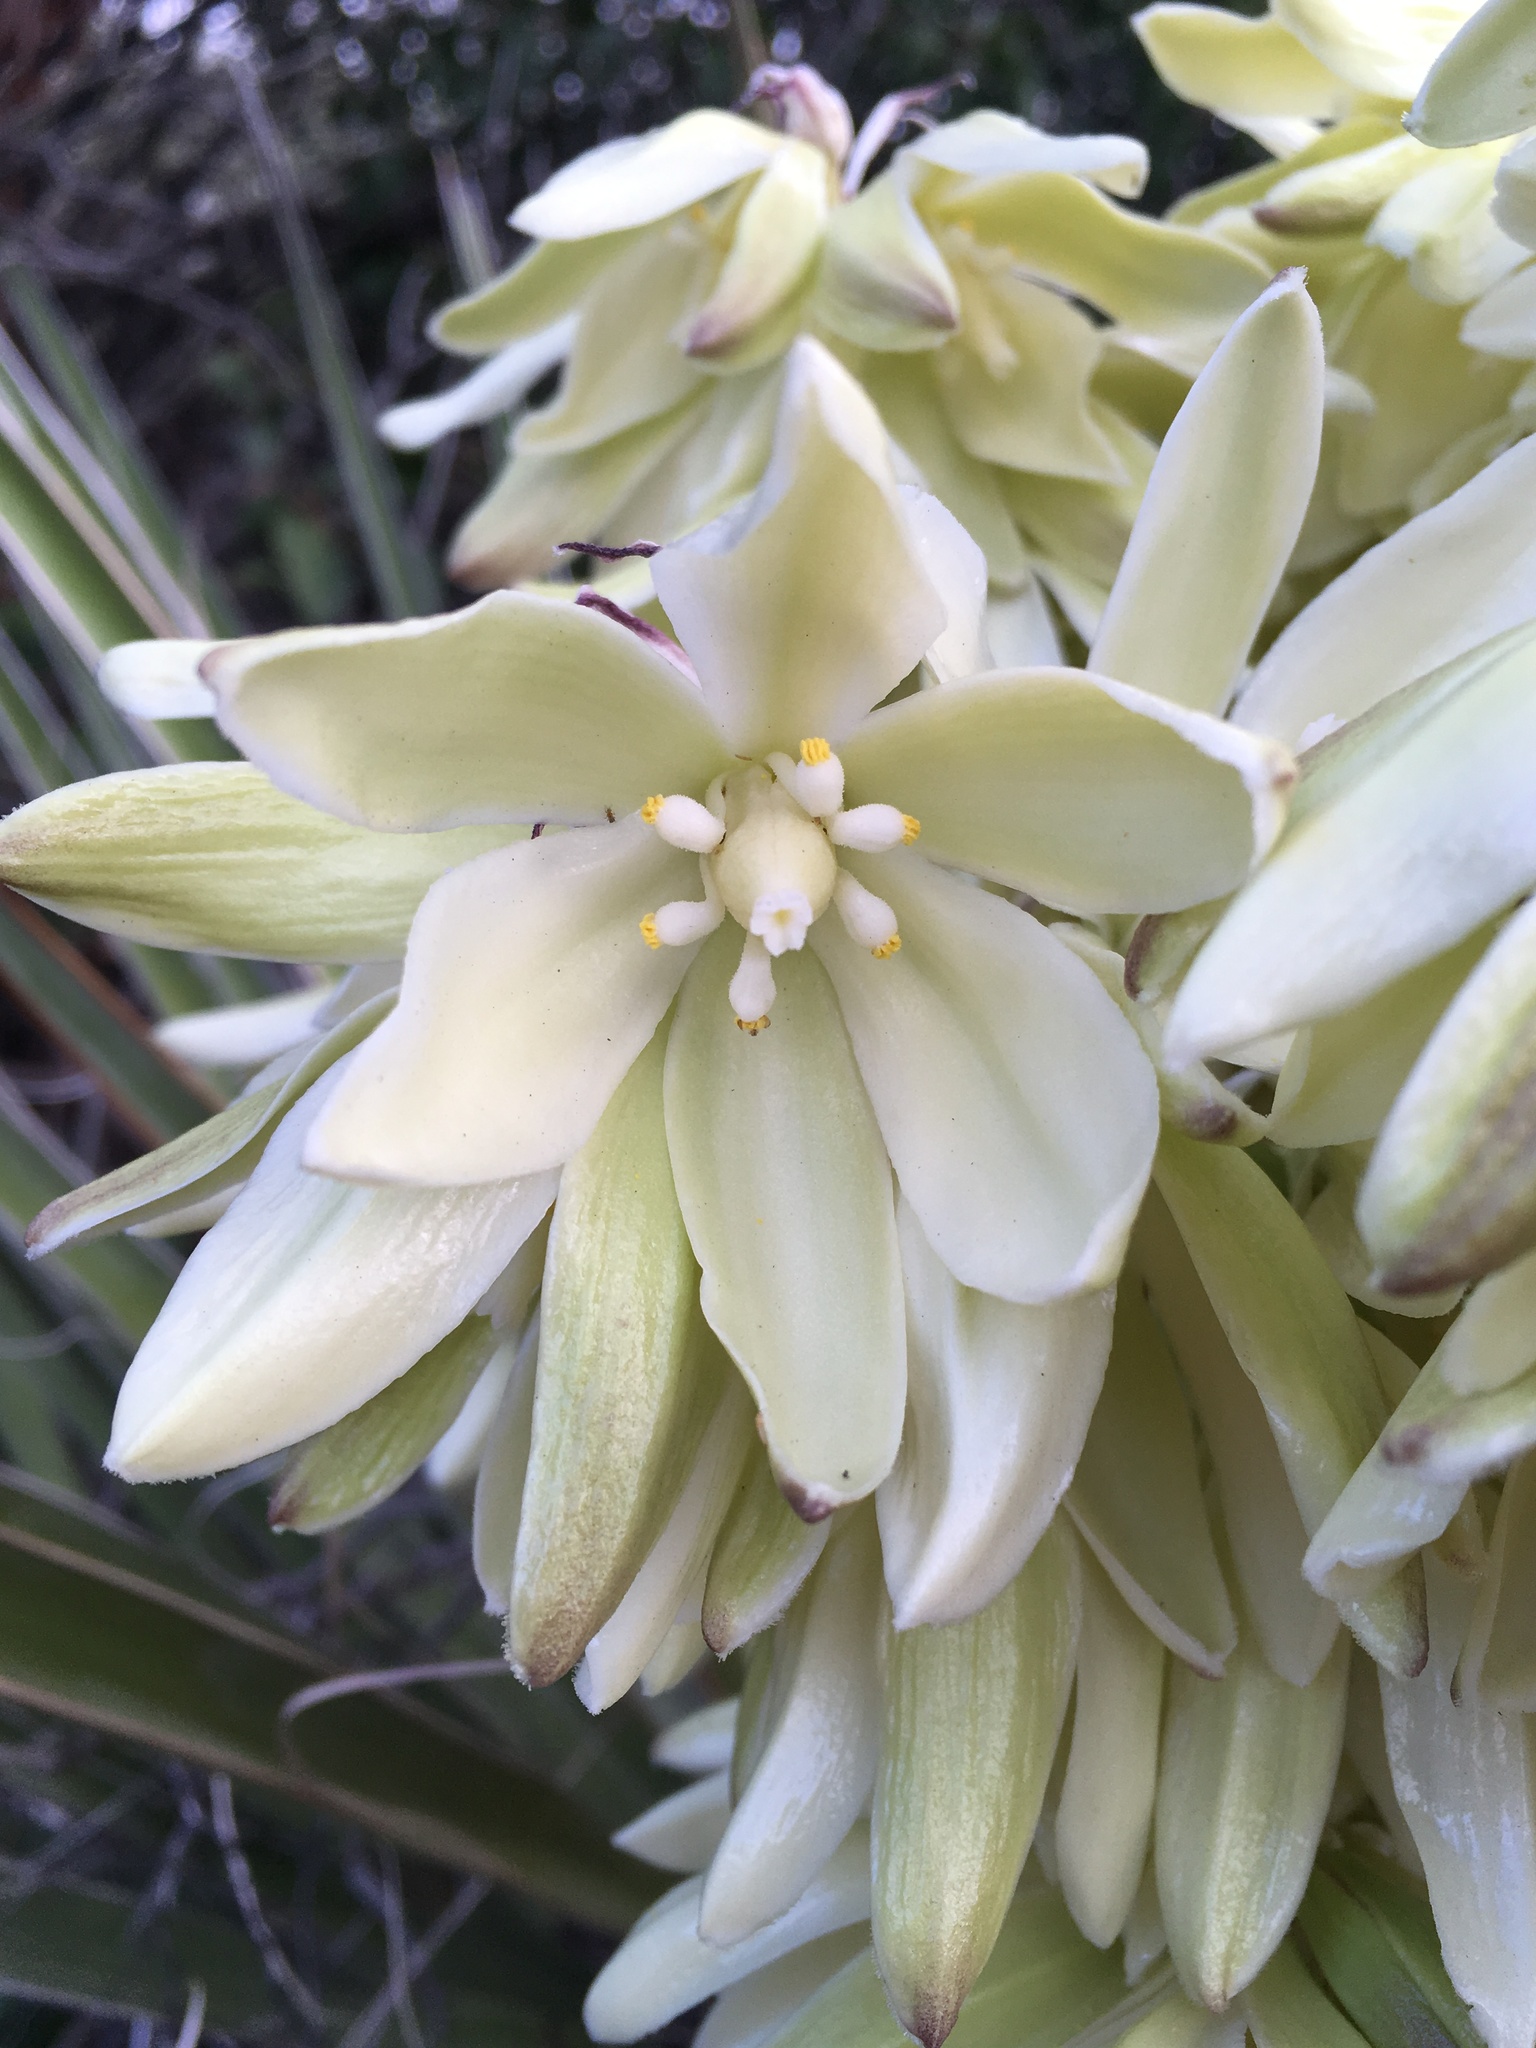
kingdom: Plantae
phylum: Tracheophyta
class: Liliopsida
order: Asparagales
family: Asparagaceae
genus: Yucca
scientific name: Yucca schidigera
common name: Mojave yucca
